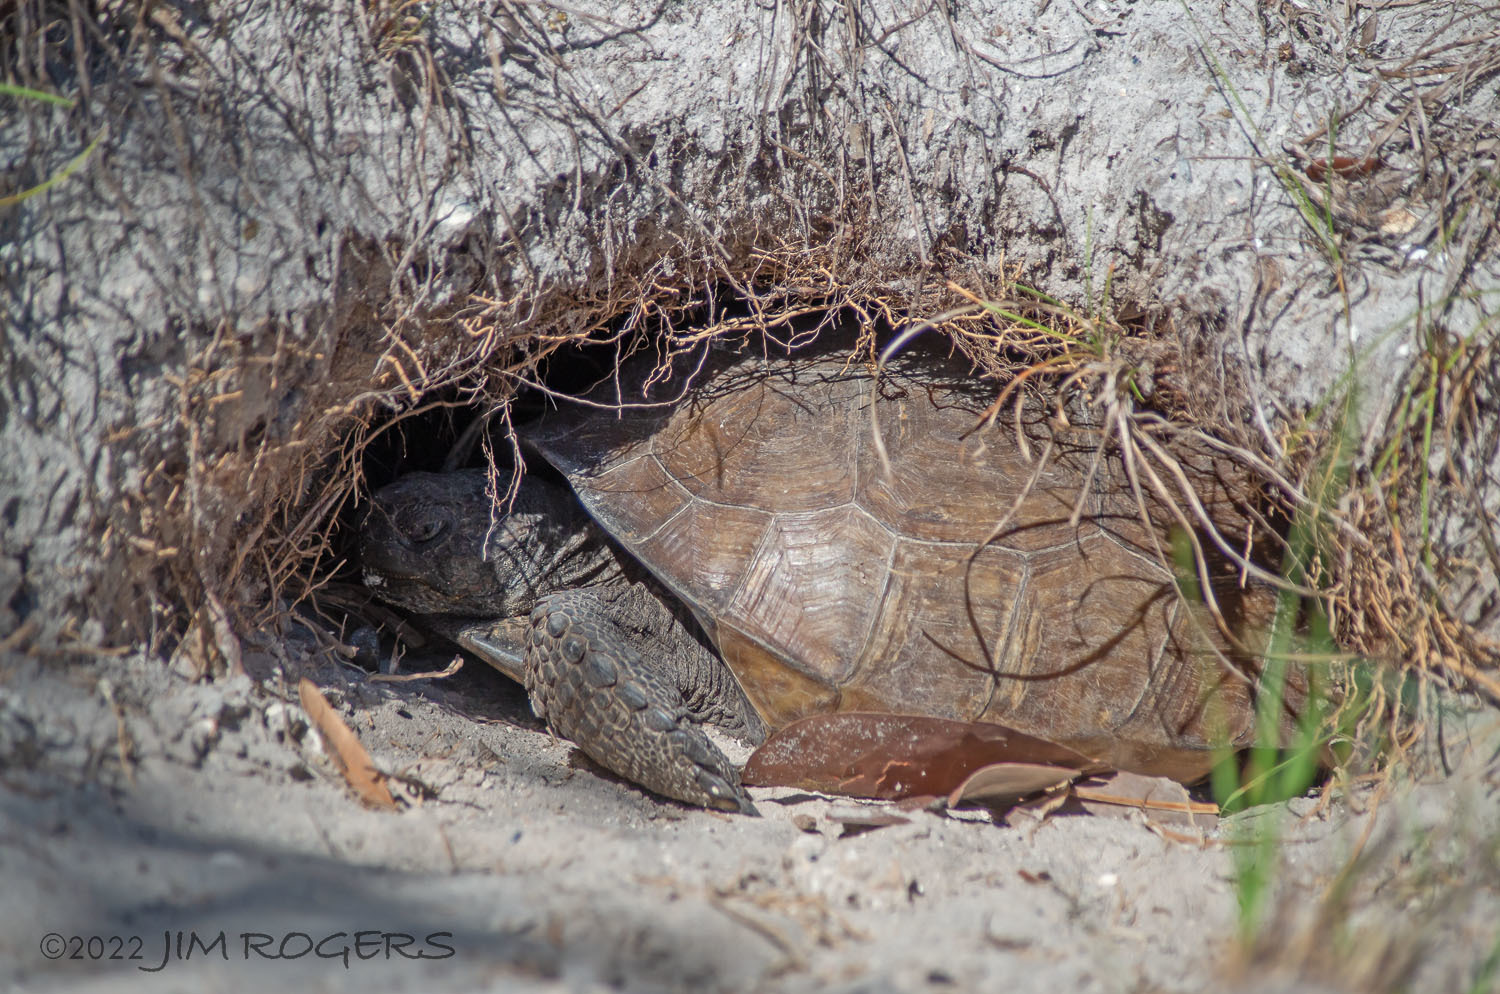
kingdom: Animalia
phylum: Chordata
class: Testudines
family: Testudinidae
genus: Gopherus
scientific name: Gopherus polyphemus
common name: Florida gopher tortoise
